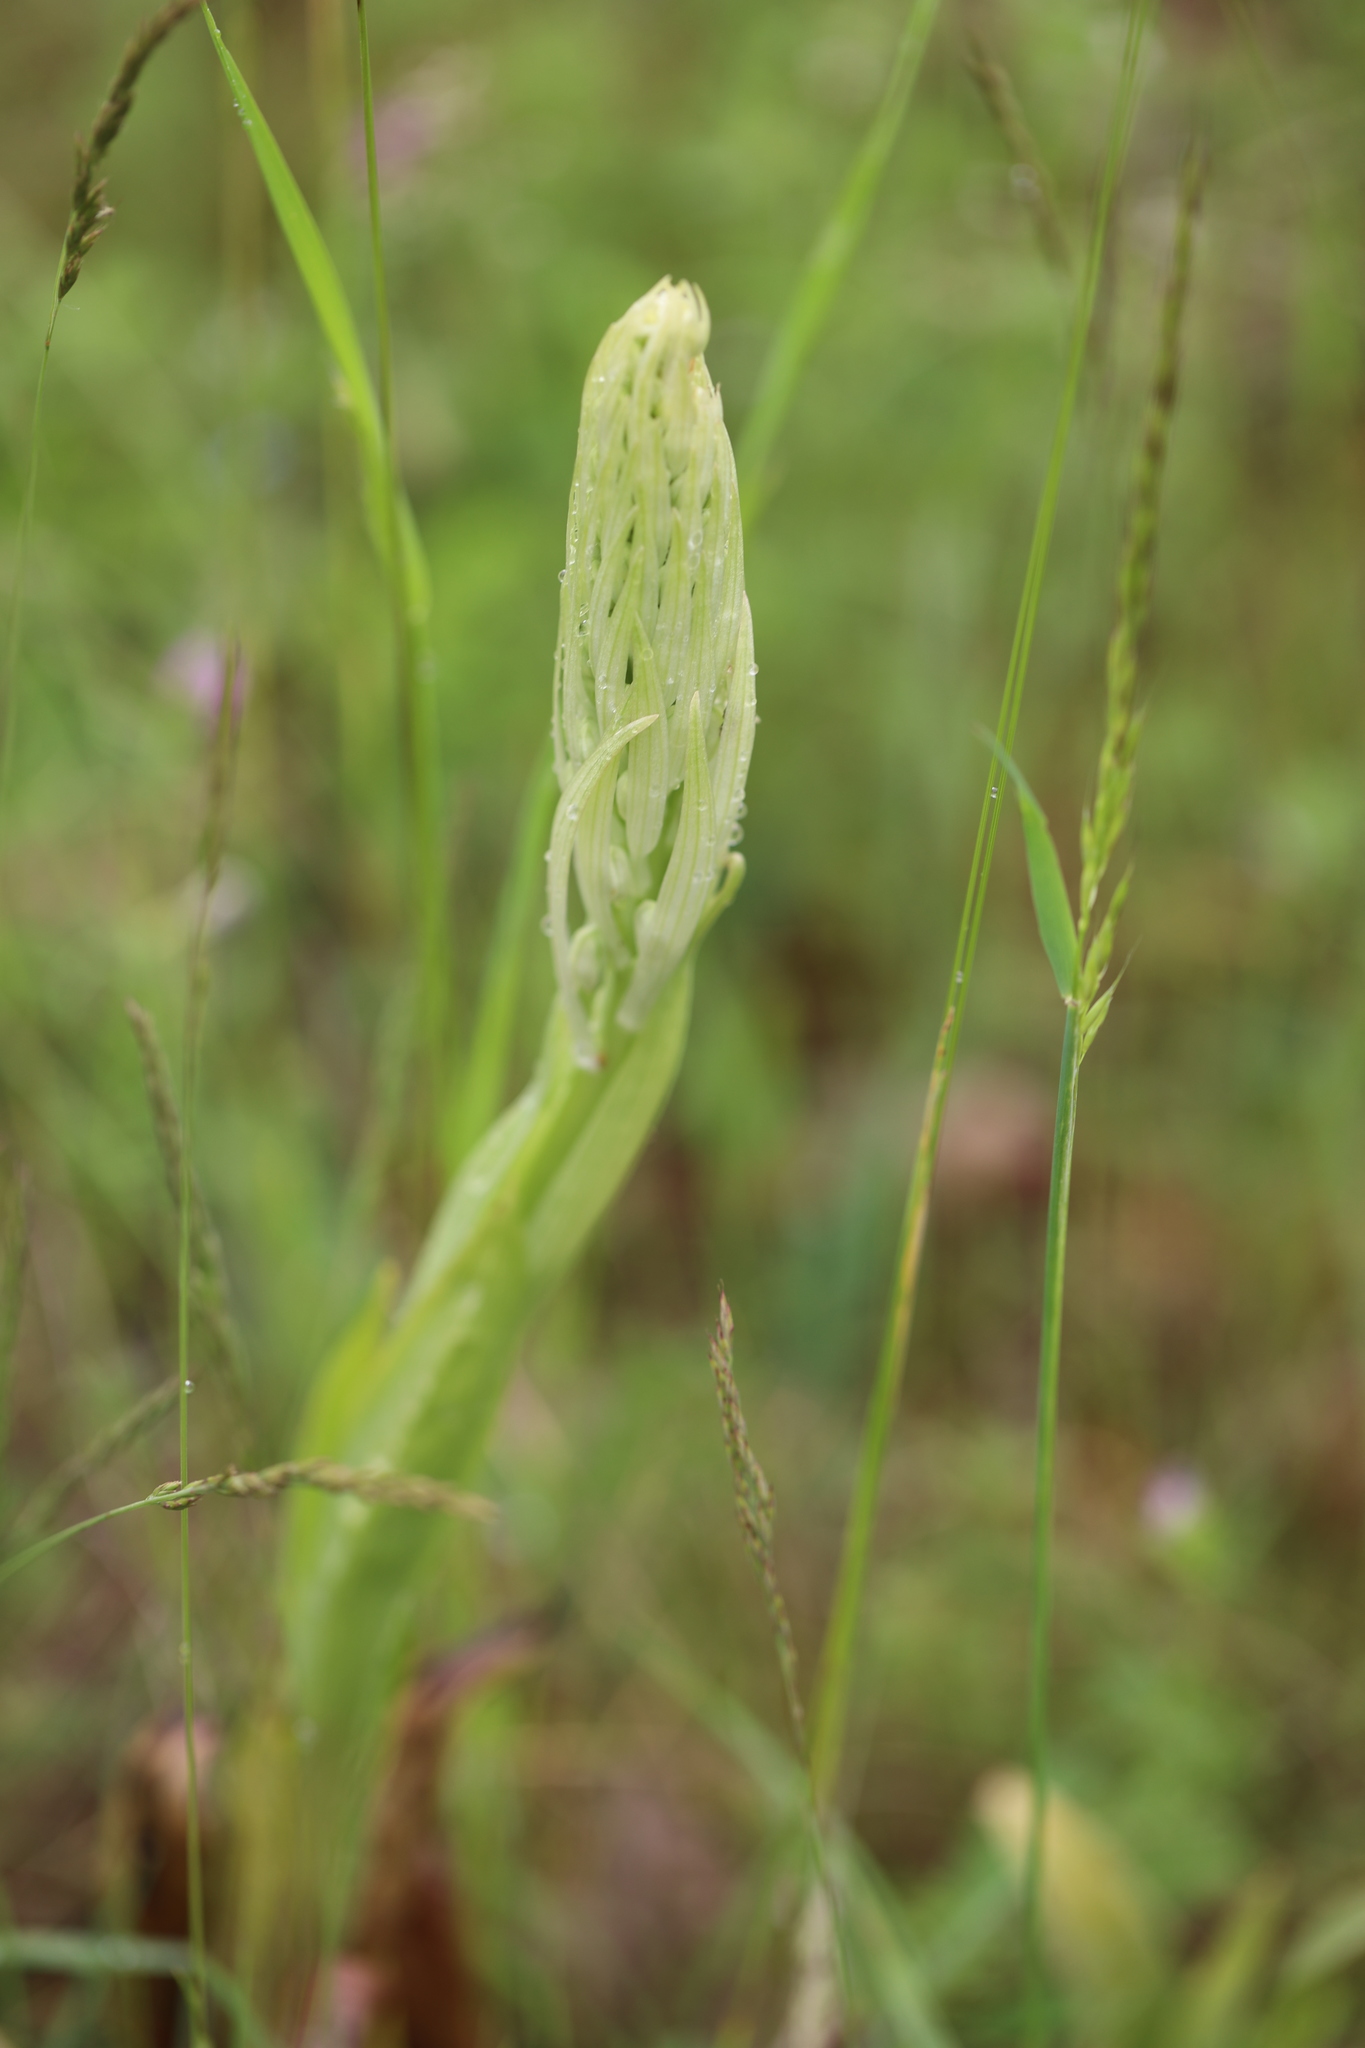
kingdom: Plantae
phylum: Tracheophyta
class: Liliopsida
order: Asparagales
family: Orchidaceae
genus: Himantoglossum
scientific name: Himantoglossum hircinum
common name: Lizard orchid
